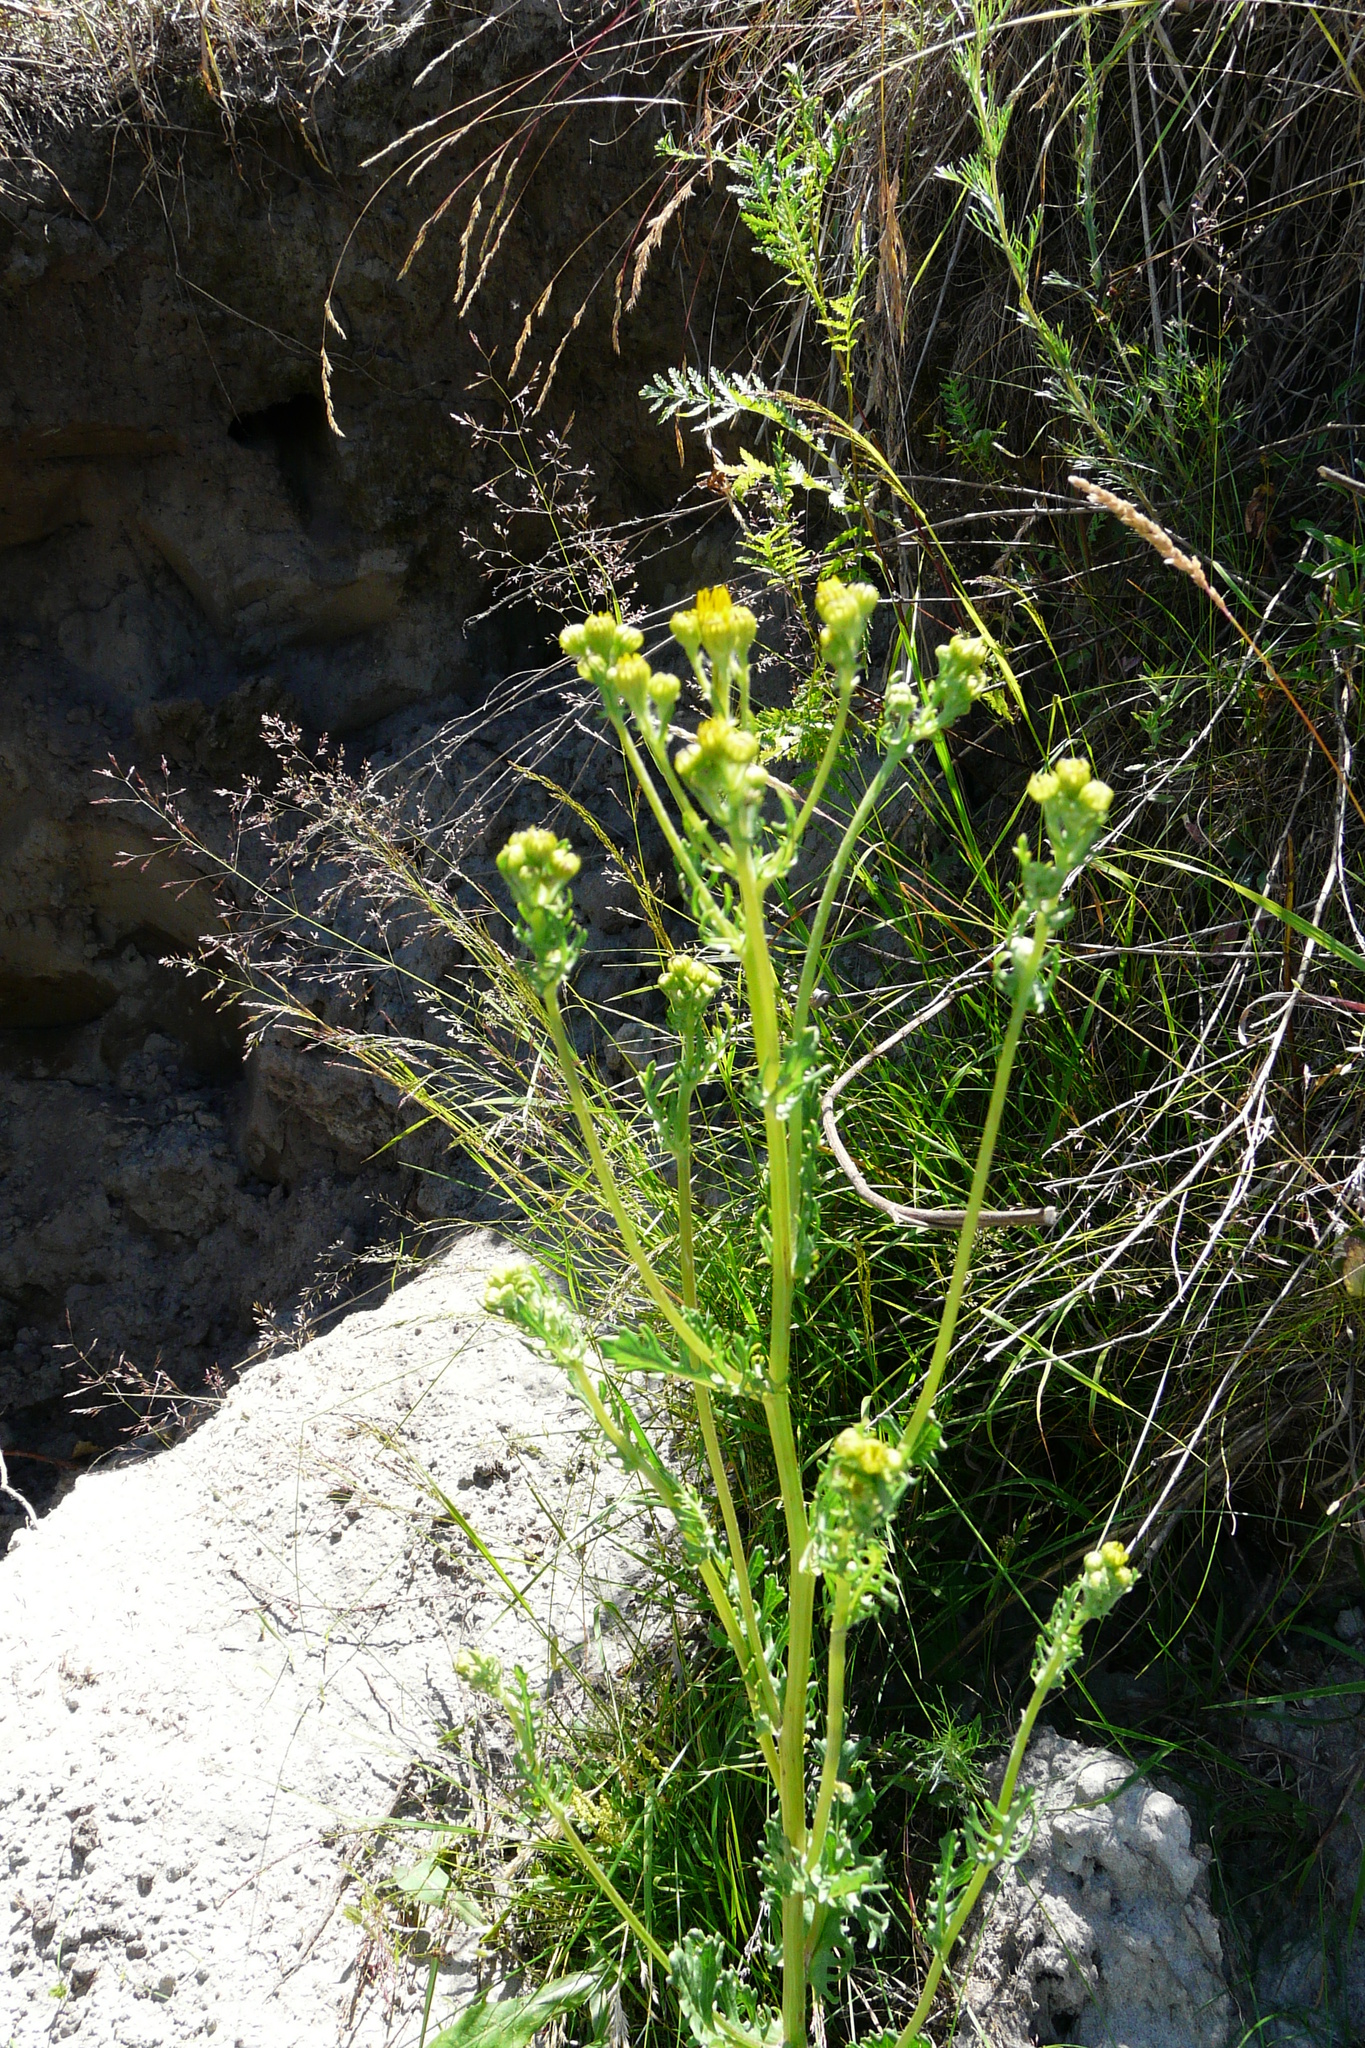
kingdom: Plantae
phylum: Tracheophyta
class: Magnoliopsida
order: Asterales
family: Asteraceae
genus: Jacobaea
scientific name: Jacobaea vulgaris
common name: Stinking willie
